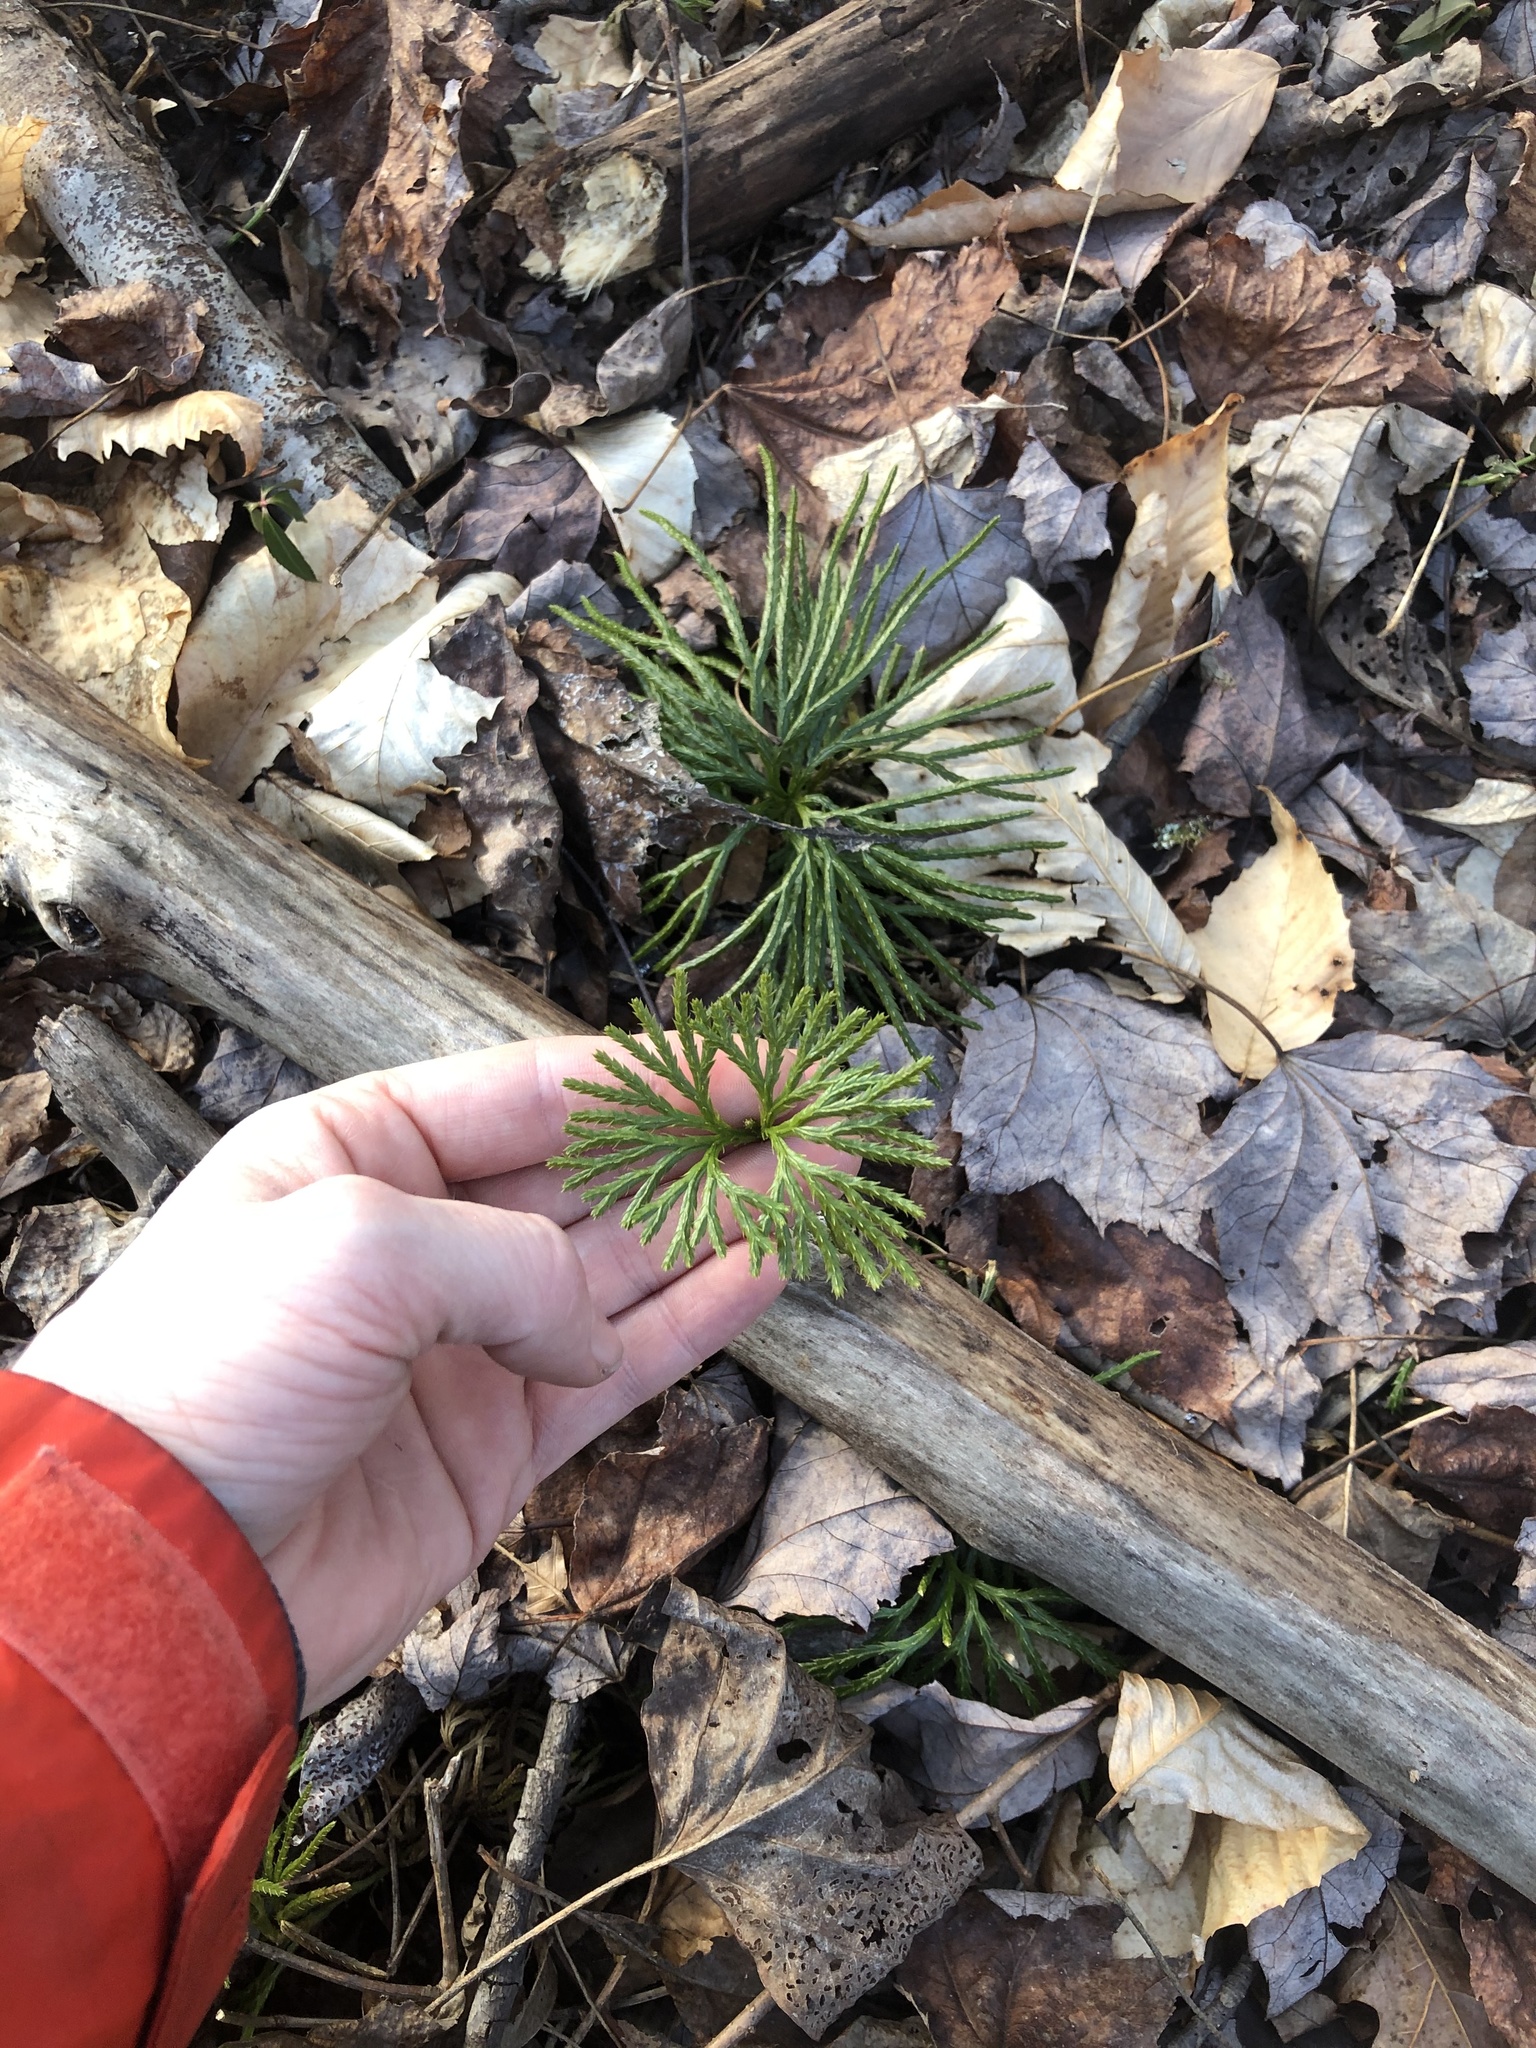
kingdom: Plantae
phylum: Tracheophyta
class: Lycopodiopsida
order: Lycopodiales
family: Lycopodiaceae
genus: Diphasiastrum
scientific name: Diphasiastrum digitatum
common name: Southern running-pine
